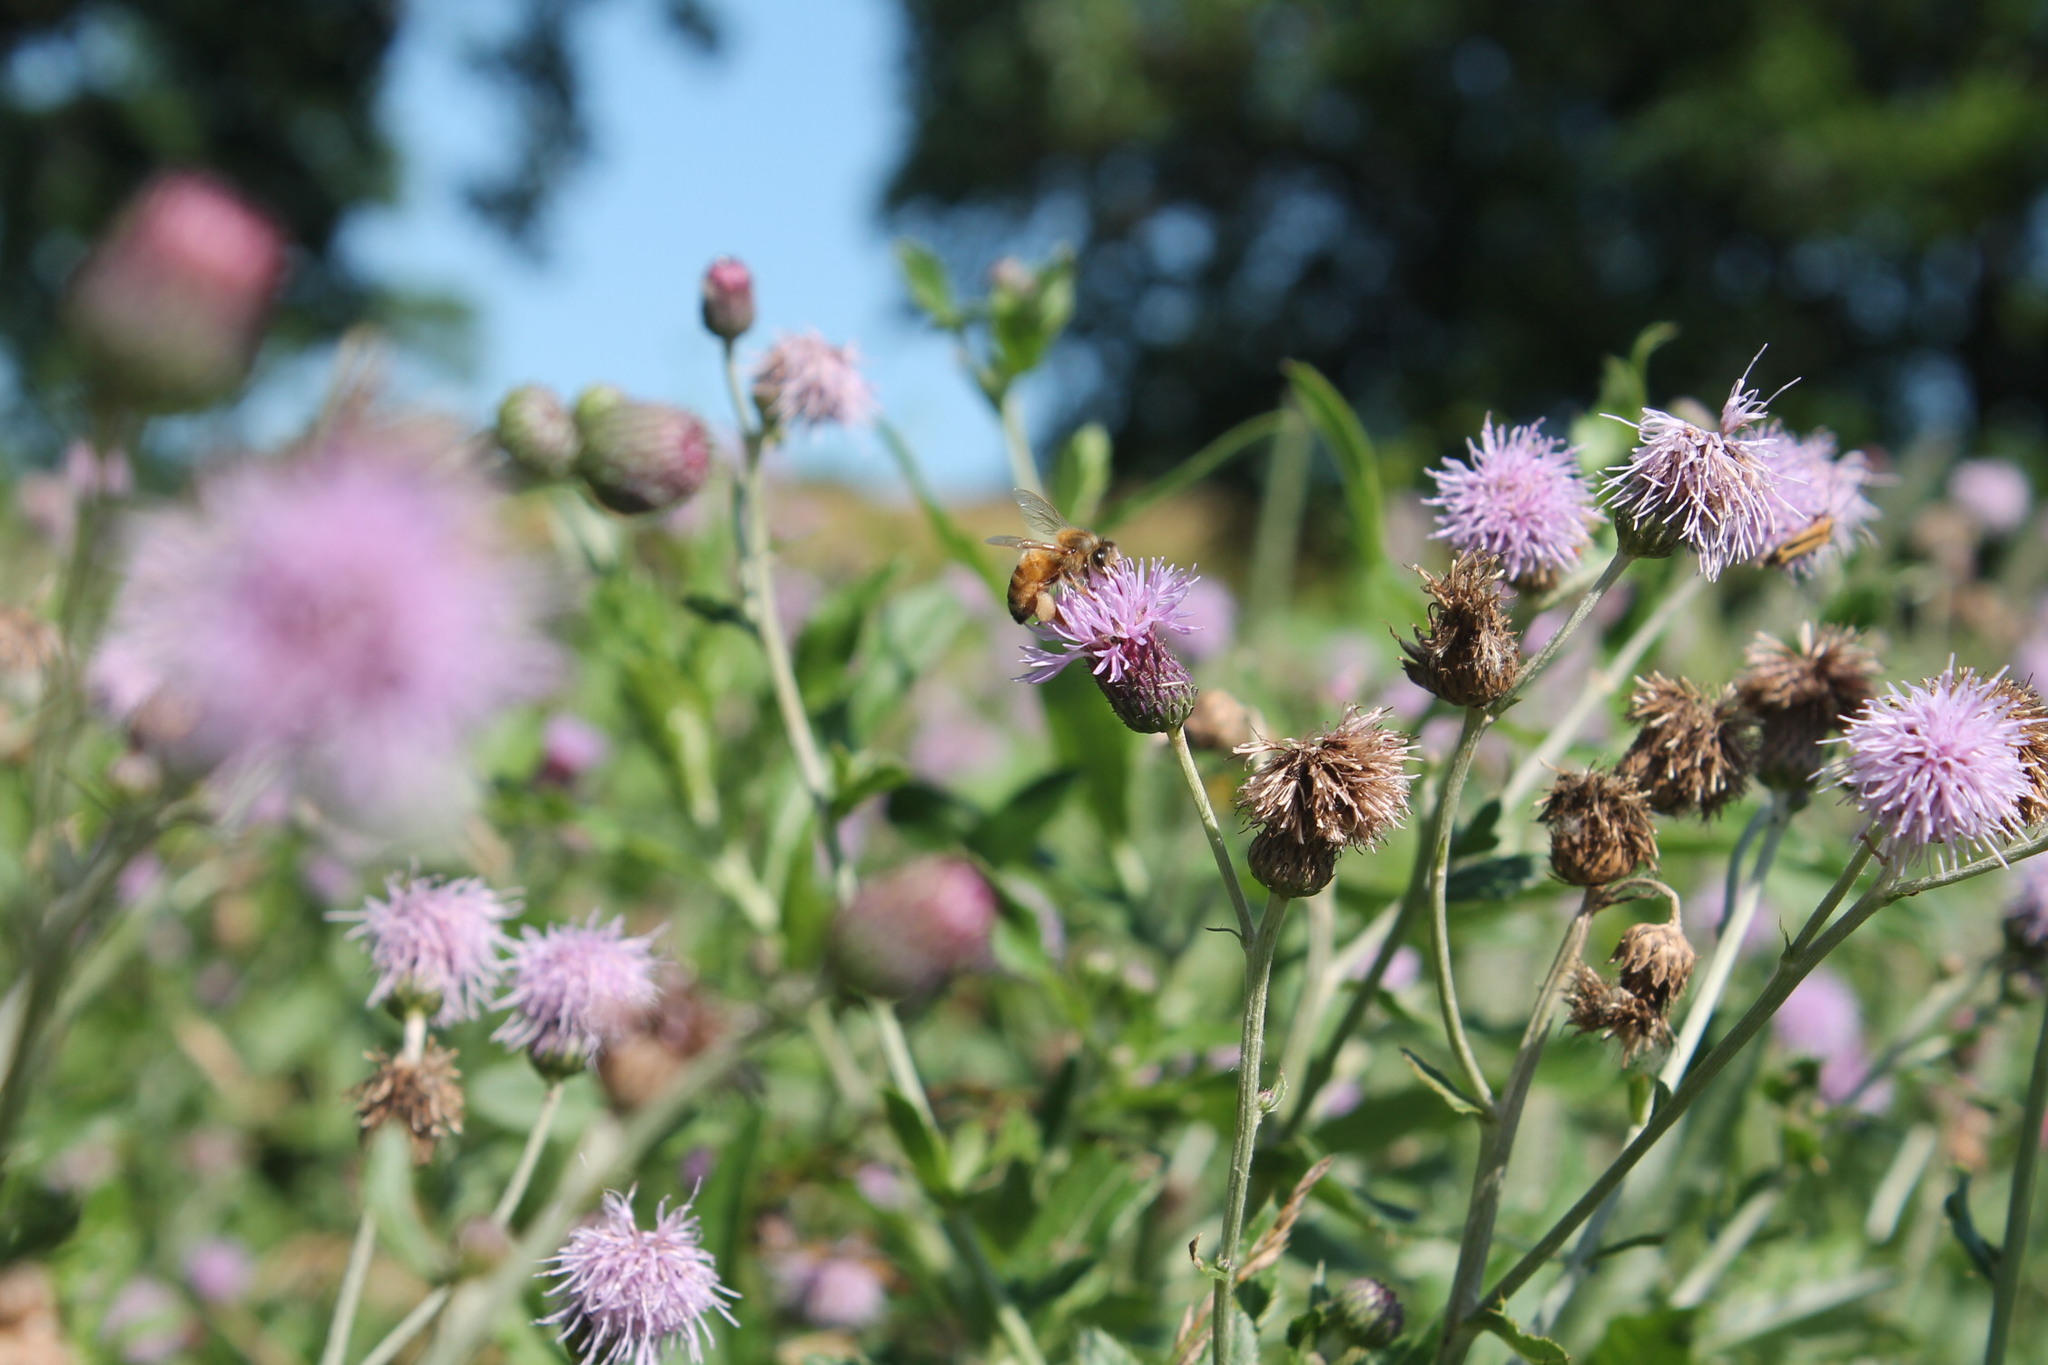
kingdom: Animalia
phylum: Arthropoda
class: Insecta
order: Hymenoptera
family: Apidae
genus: Apis
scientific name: Apis mellifera
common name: Honey bee
